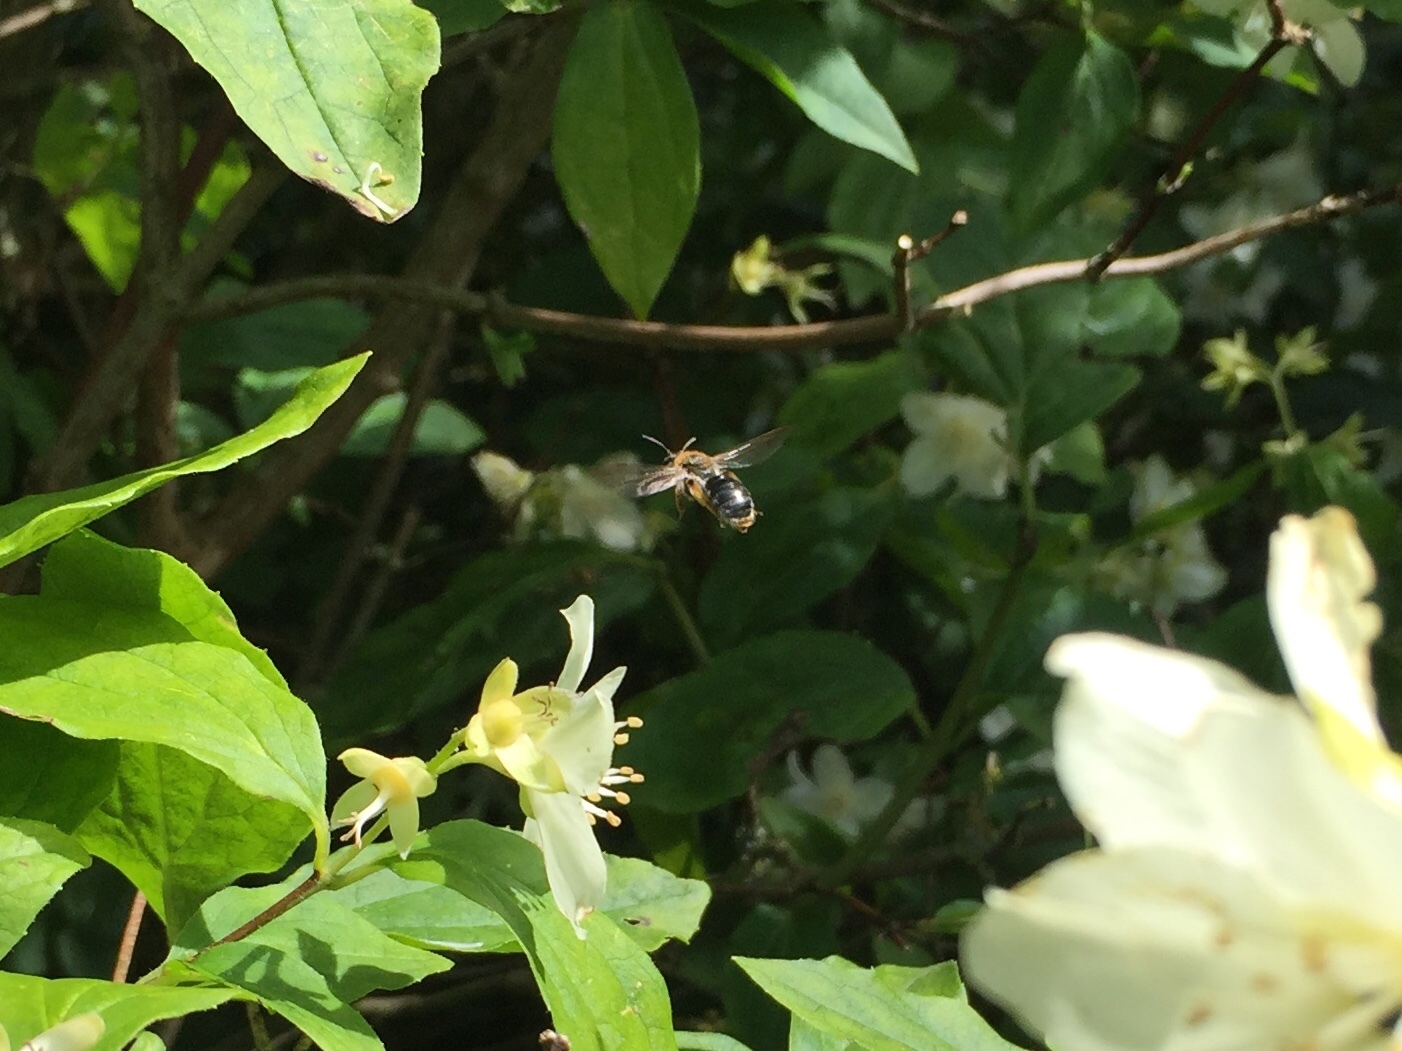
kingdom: Animalia
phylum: Arthropoda
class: Insecta
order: Hymenoptera
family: Andrenidae
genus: Andrena
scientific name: Andrena haemorrhoa
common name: Early mining bee
